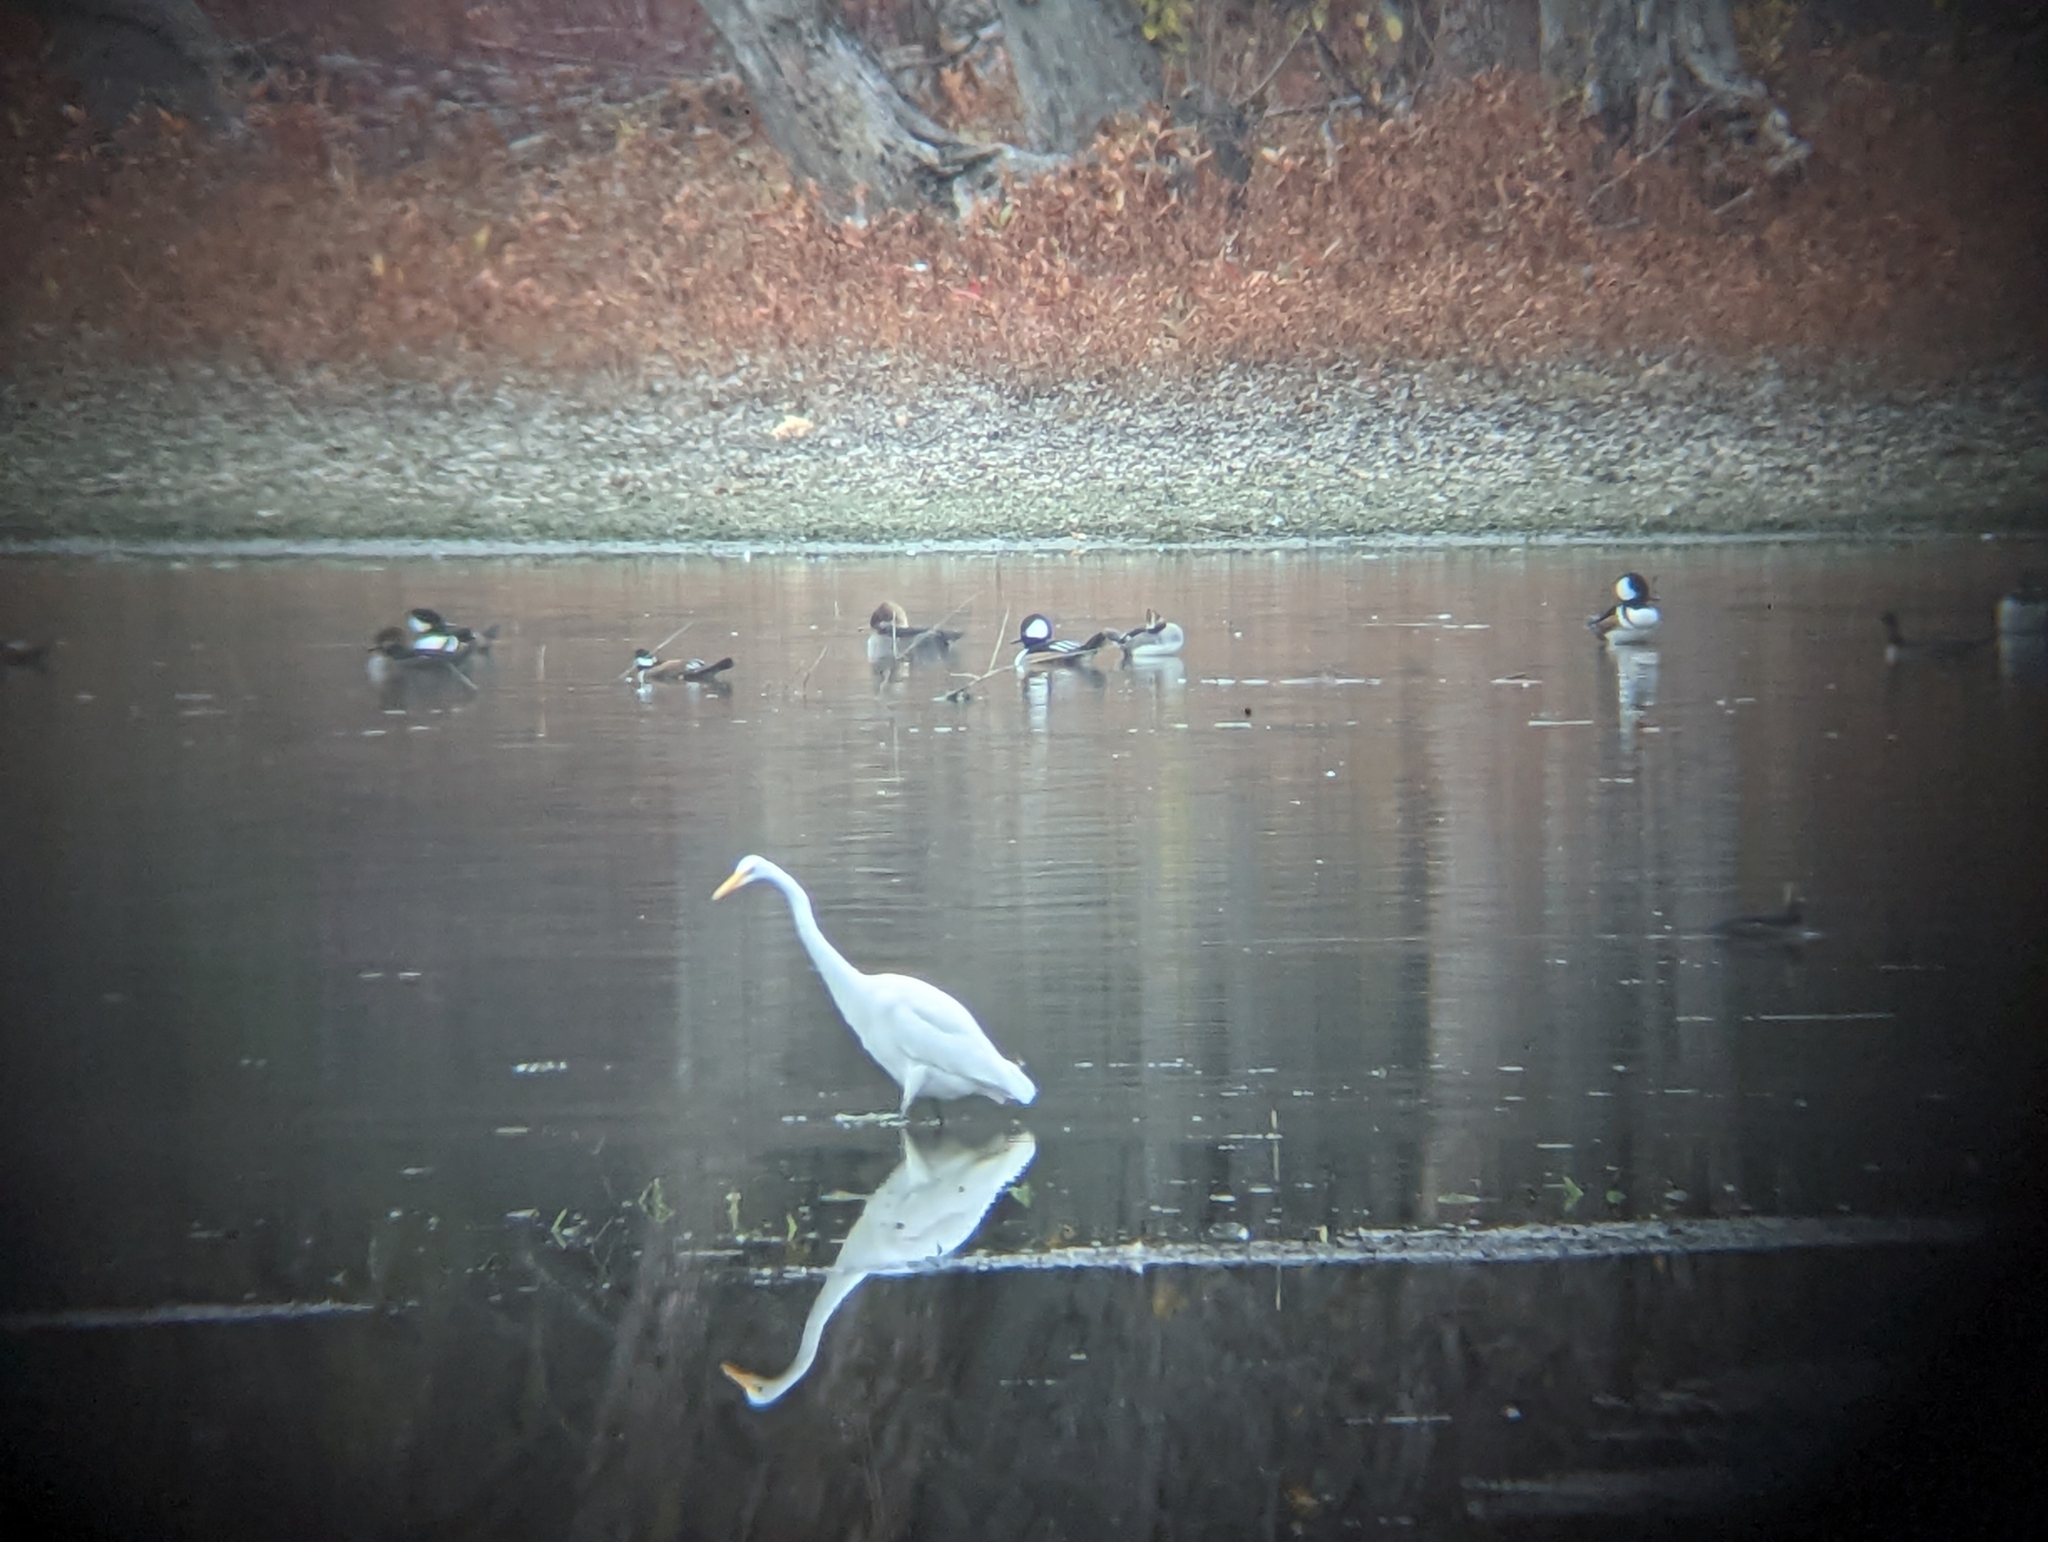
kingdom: Animalia
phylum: Chordata
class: Aves
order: Pelecaniformes
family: Ardeidae
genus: Ardea
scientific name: Ardea alba
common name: Great egret
